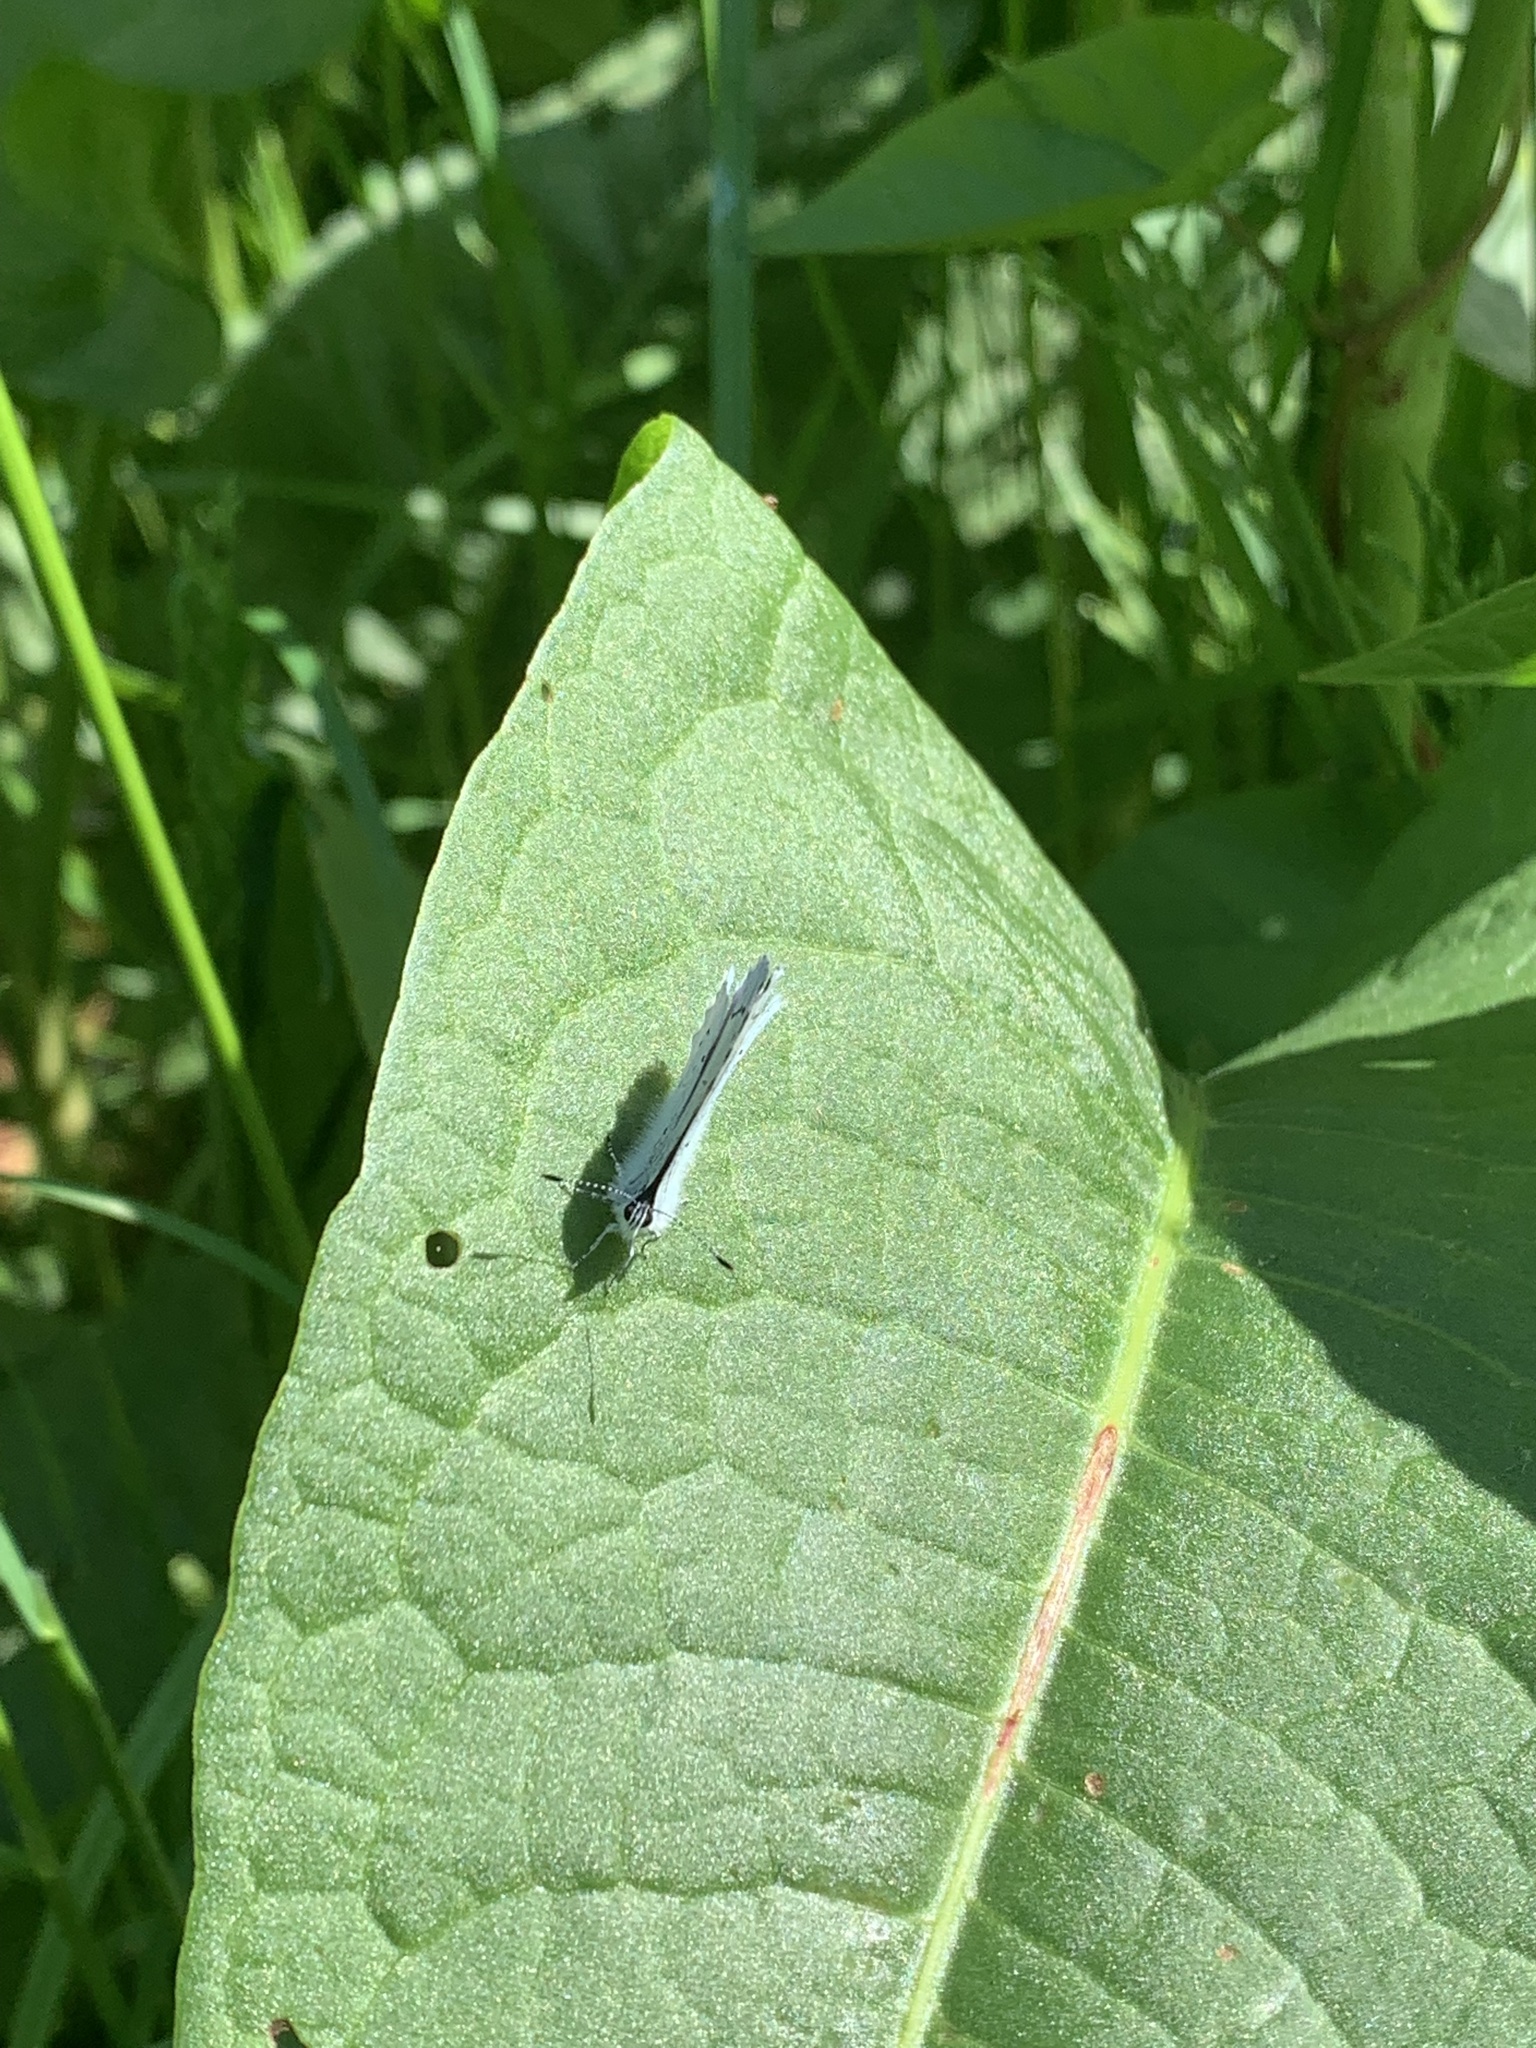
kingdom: Animalia
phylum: Arthropoda
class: Insecta
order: Lepidoptera
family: Lycaenidae
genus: Celastrina
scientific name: Celastrina argiolus
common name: Holly blue
